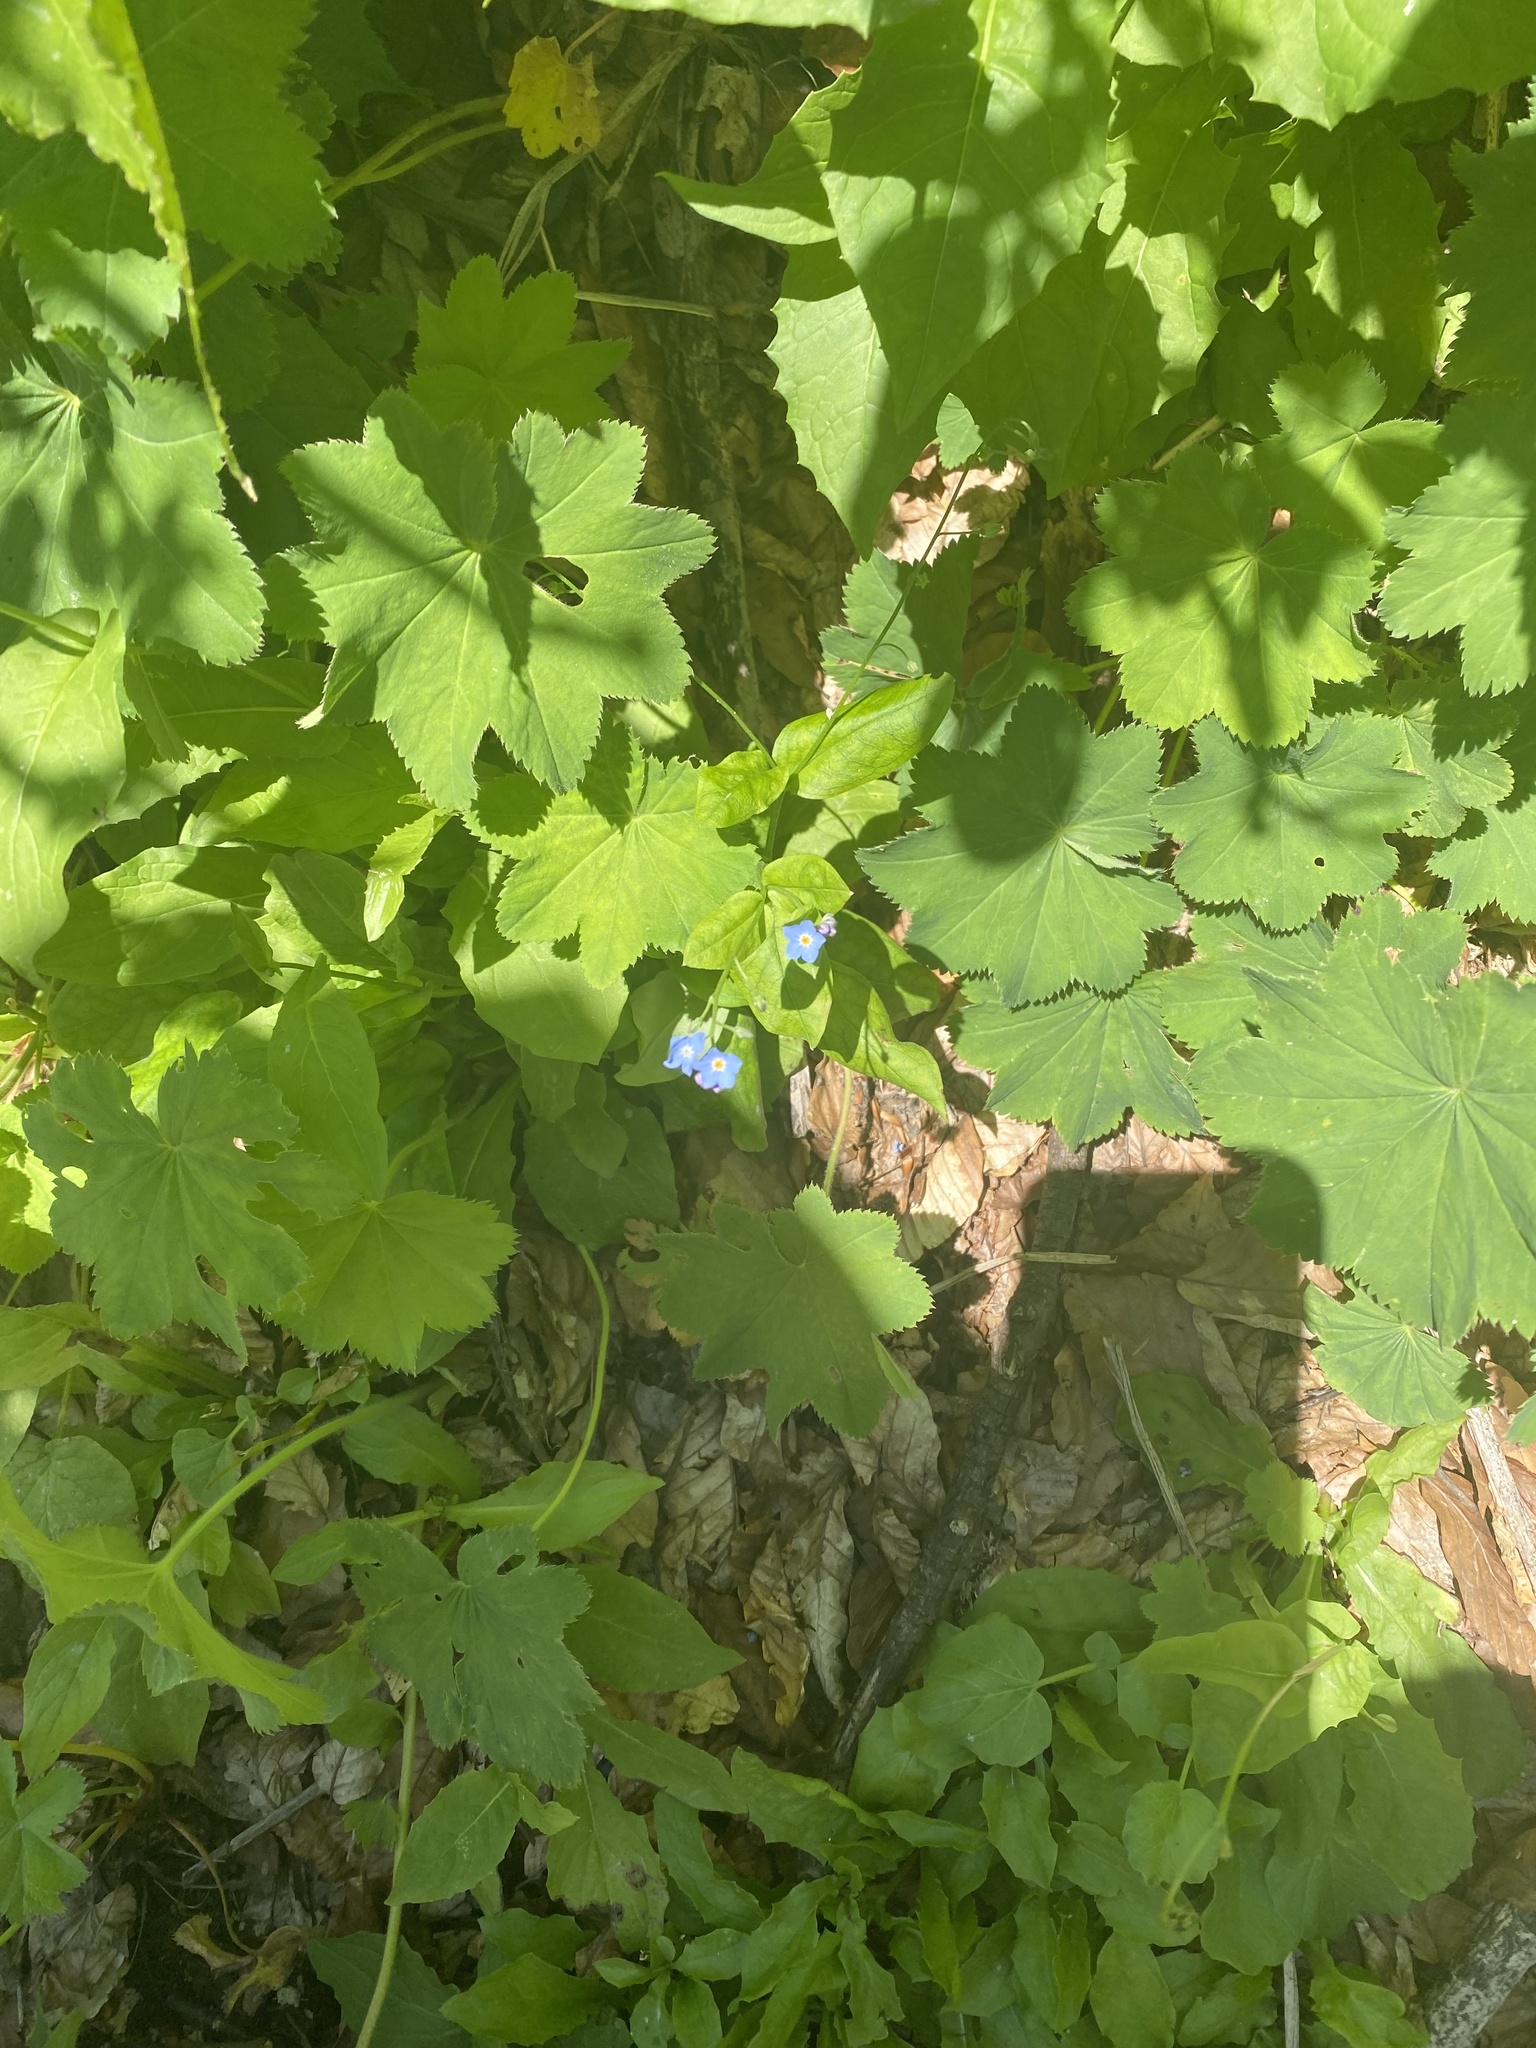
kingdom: Plantae
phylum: Tracheophyta
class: Magnoliopsida
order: Boraginales
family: Boraginaceae
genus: Myosotis
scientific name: Myosotis
